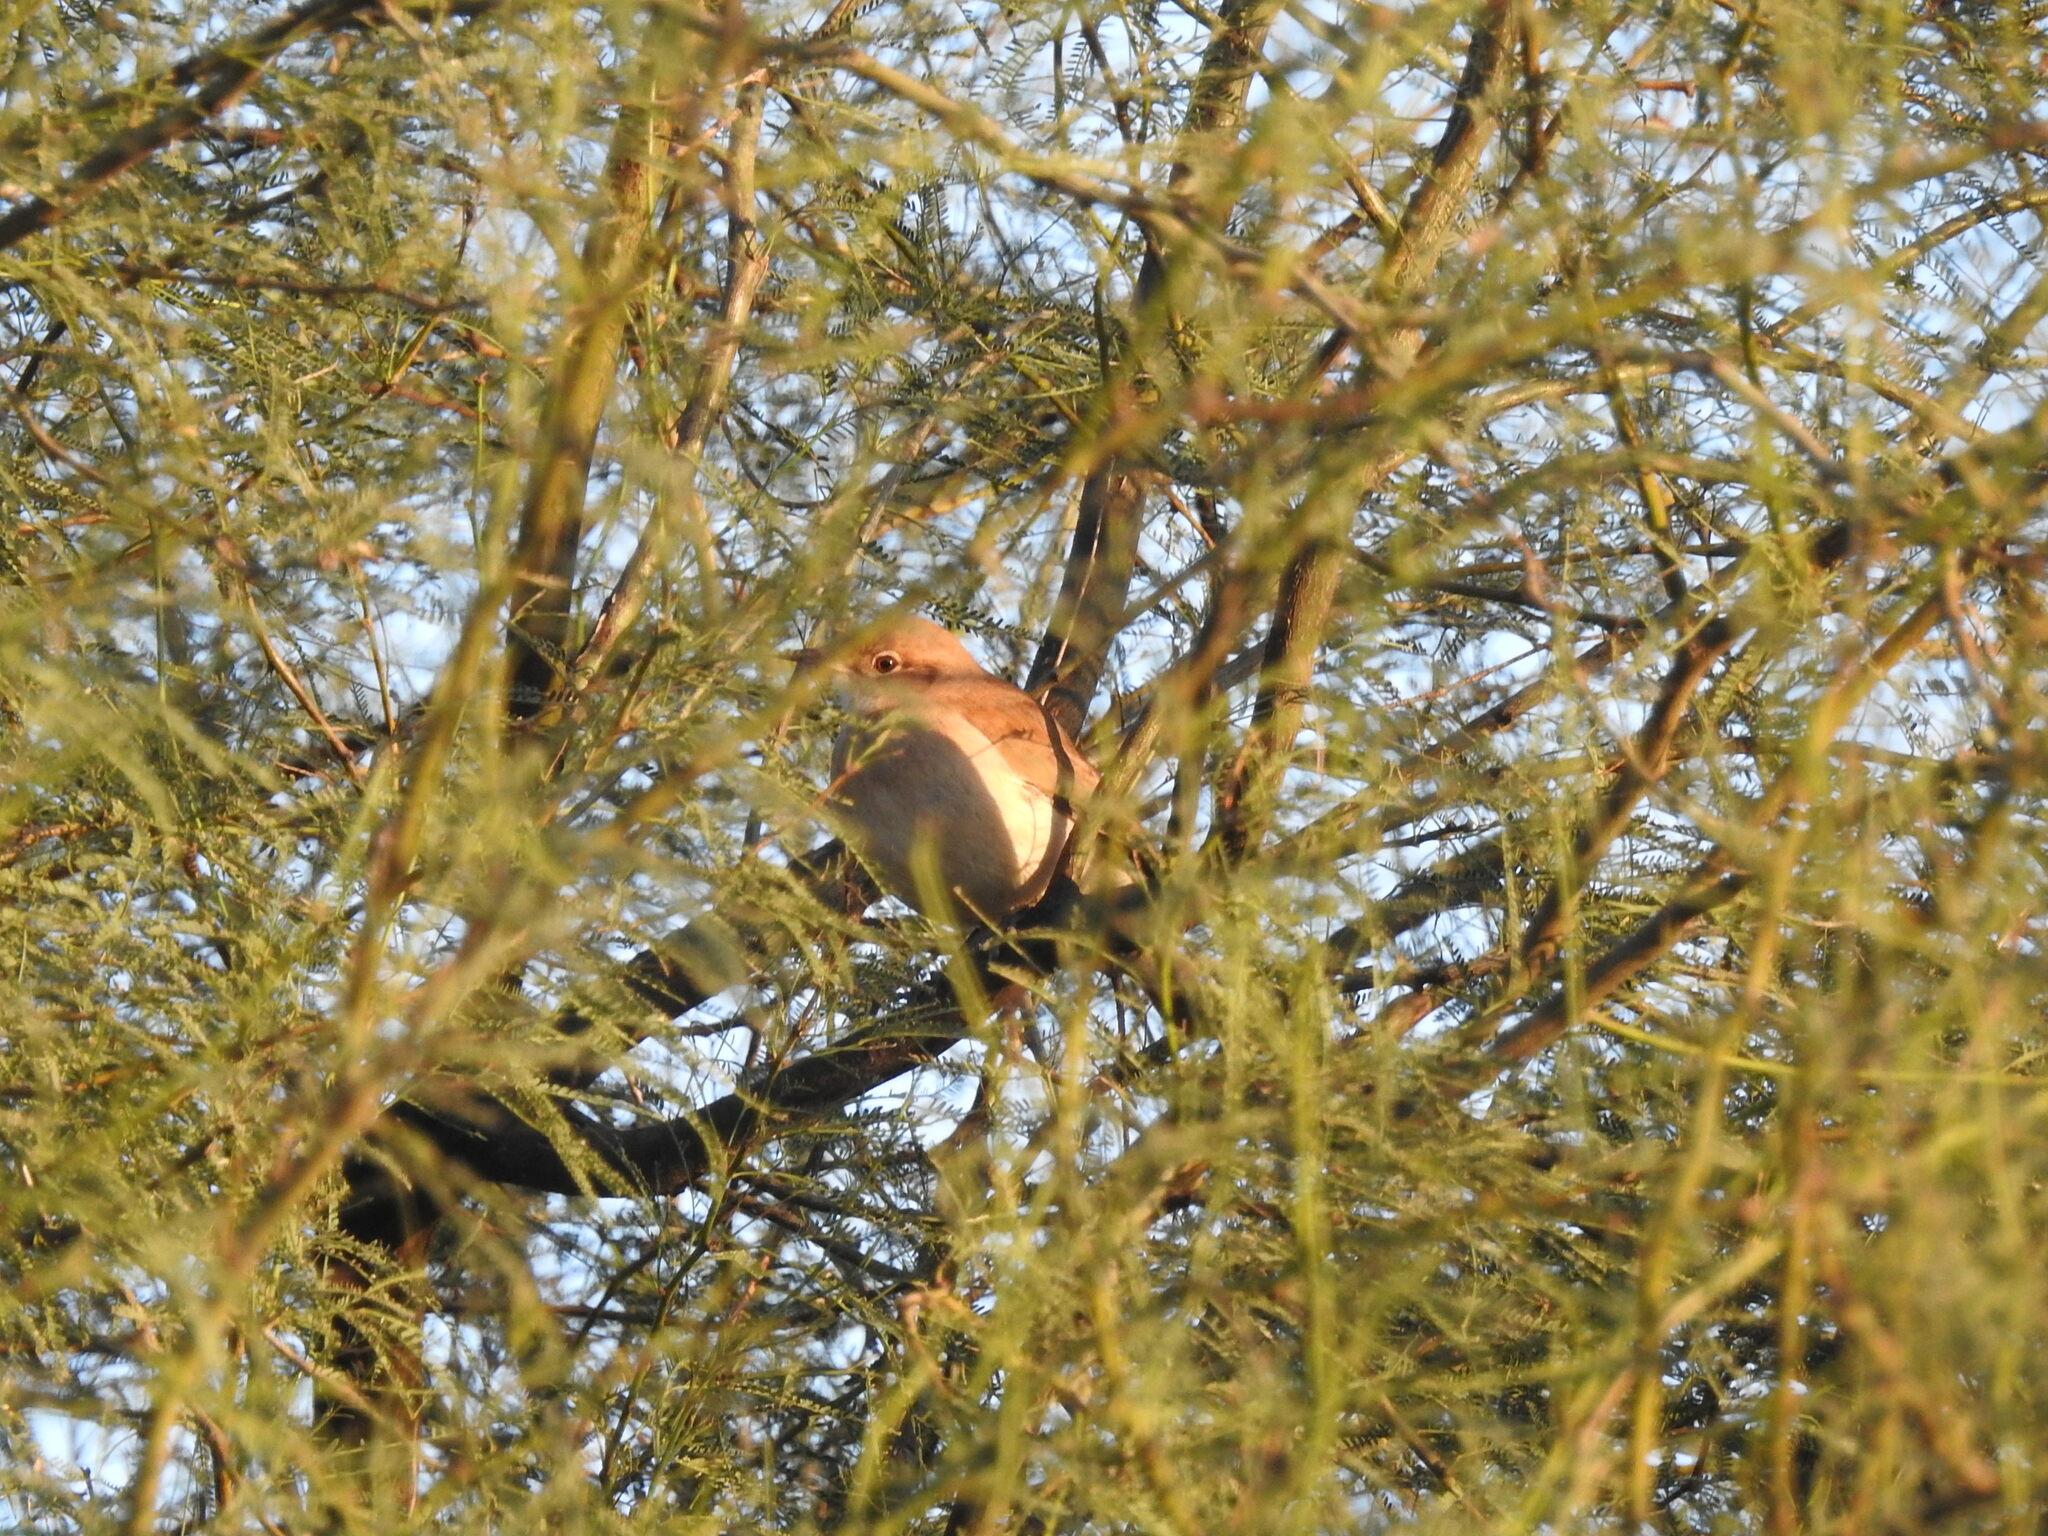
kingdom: Animalia
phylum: Chordata
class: Aves
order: Passeriformes
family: Furnariidae
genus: Anumbius
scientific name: Anumbius annumbi
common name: Firewood-gatherer
